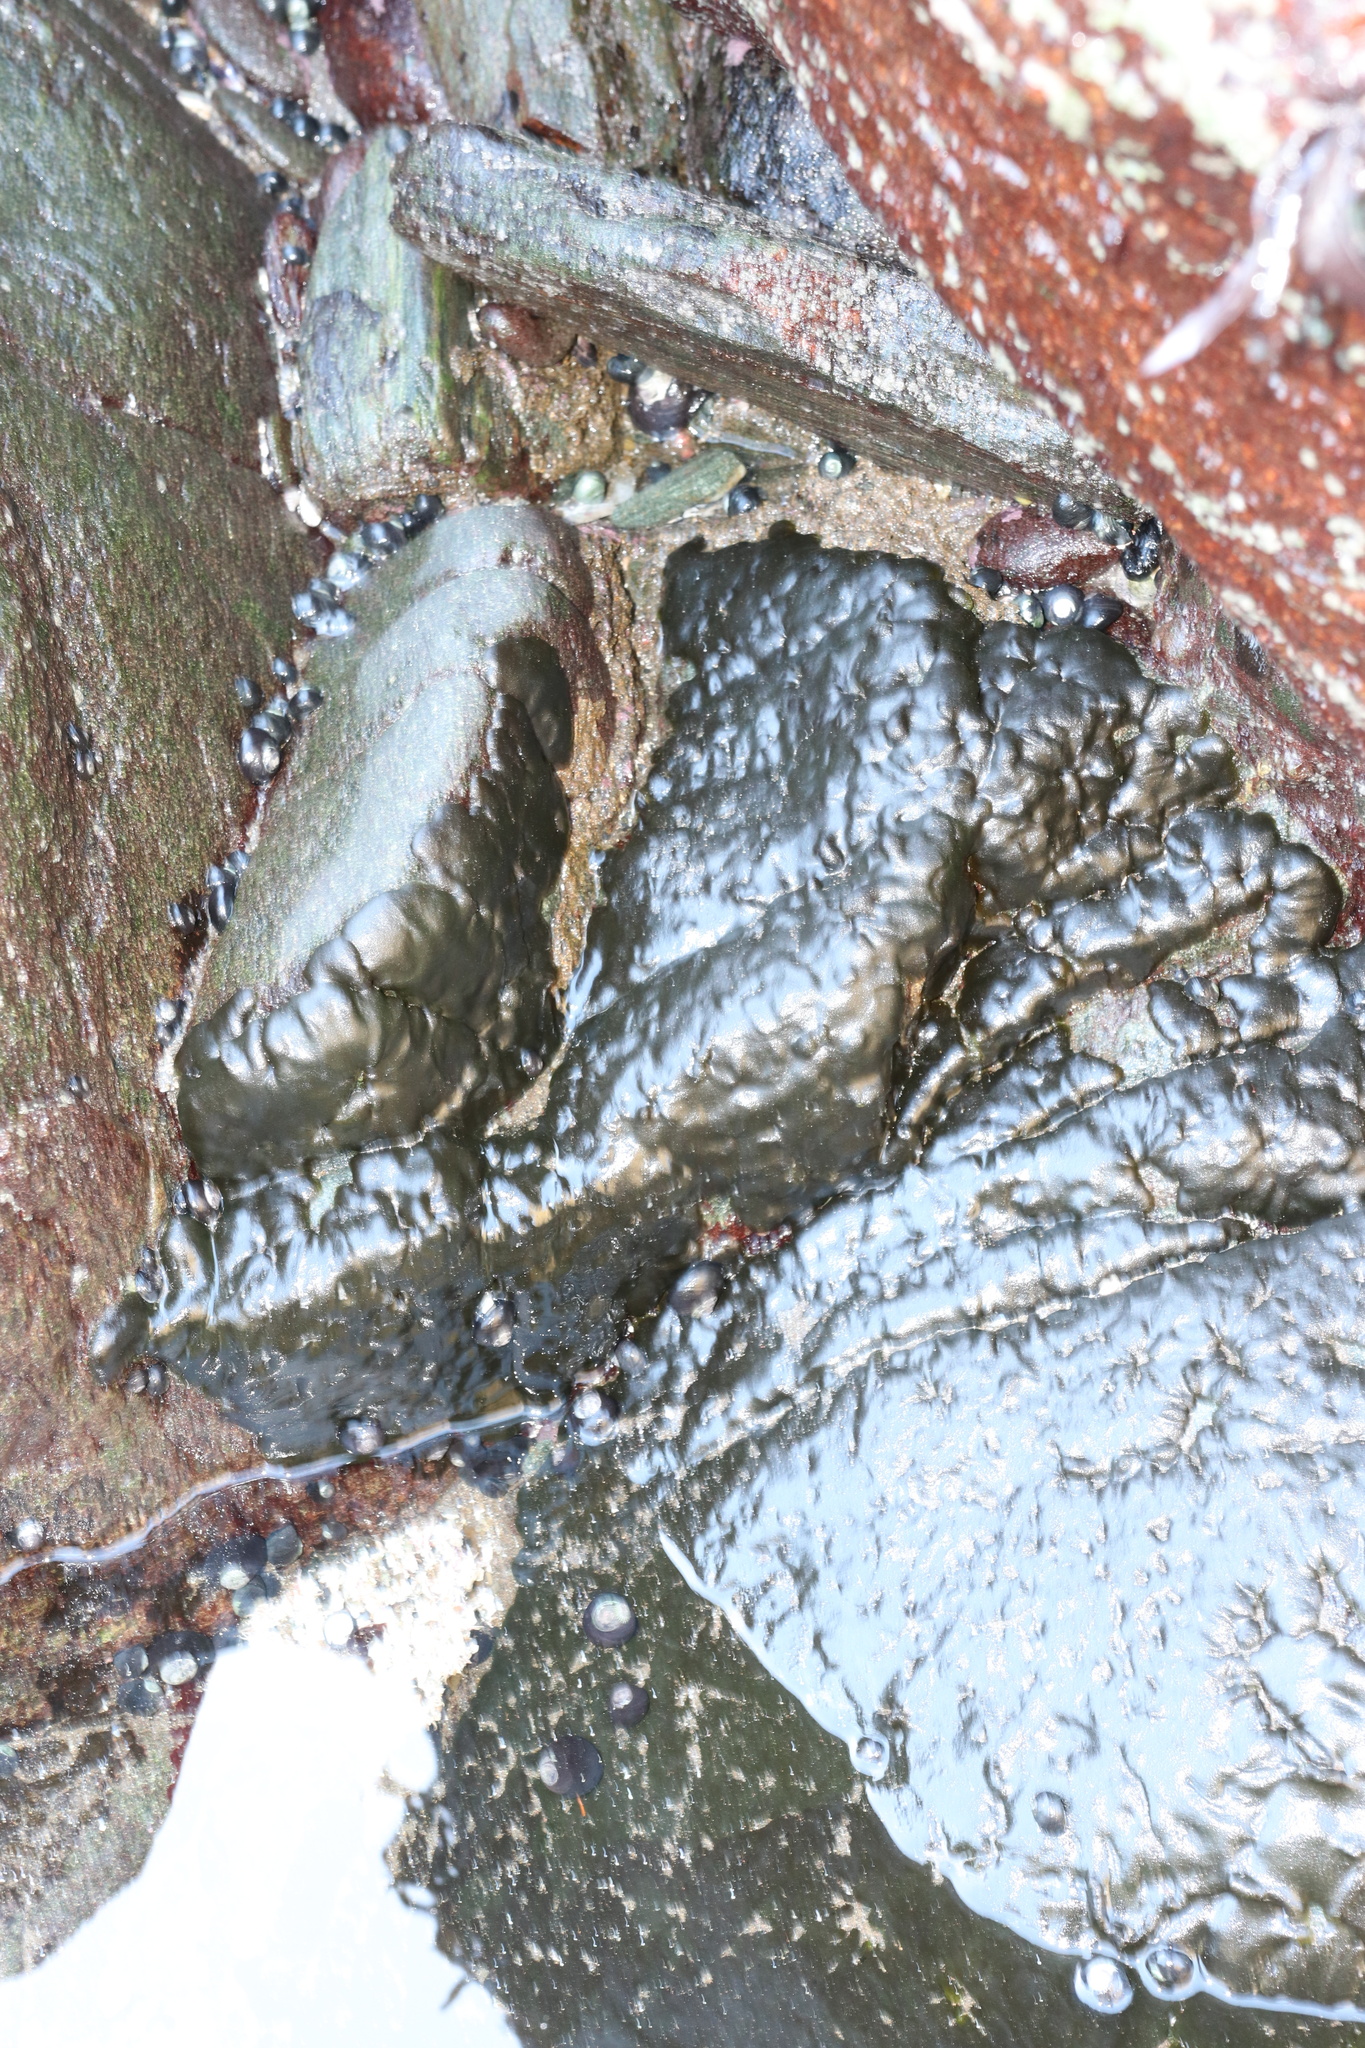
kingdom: Plantae
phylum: Chlorophyta
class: Ulvophyceae
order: Bryopsidales
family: Codiaceae
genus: Codium
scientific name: Codium
